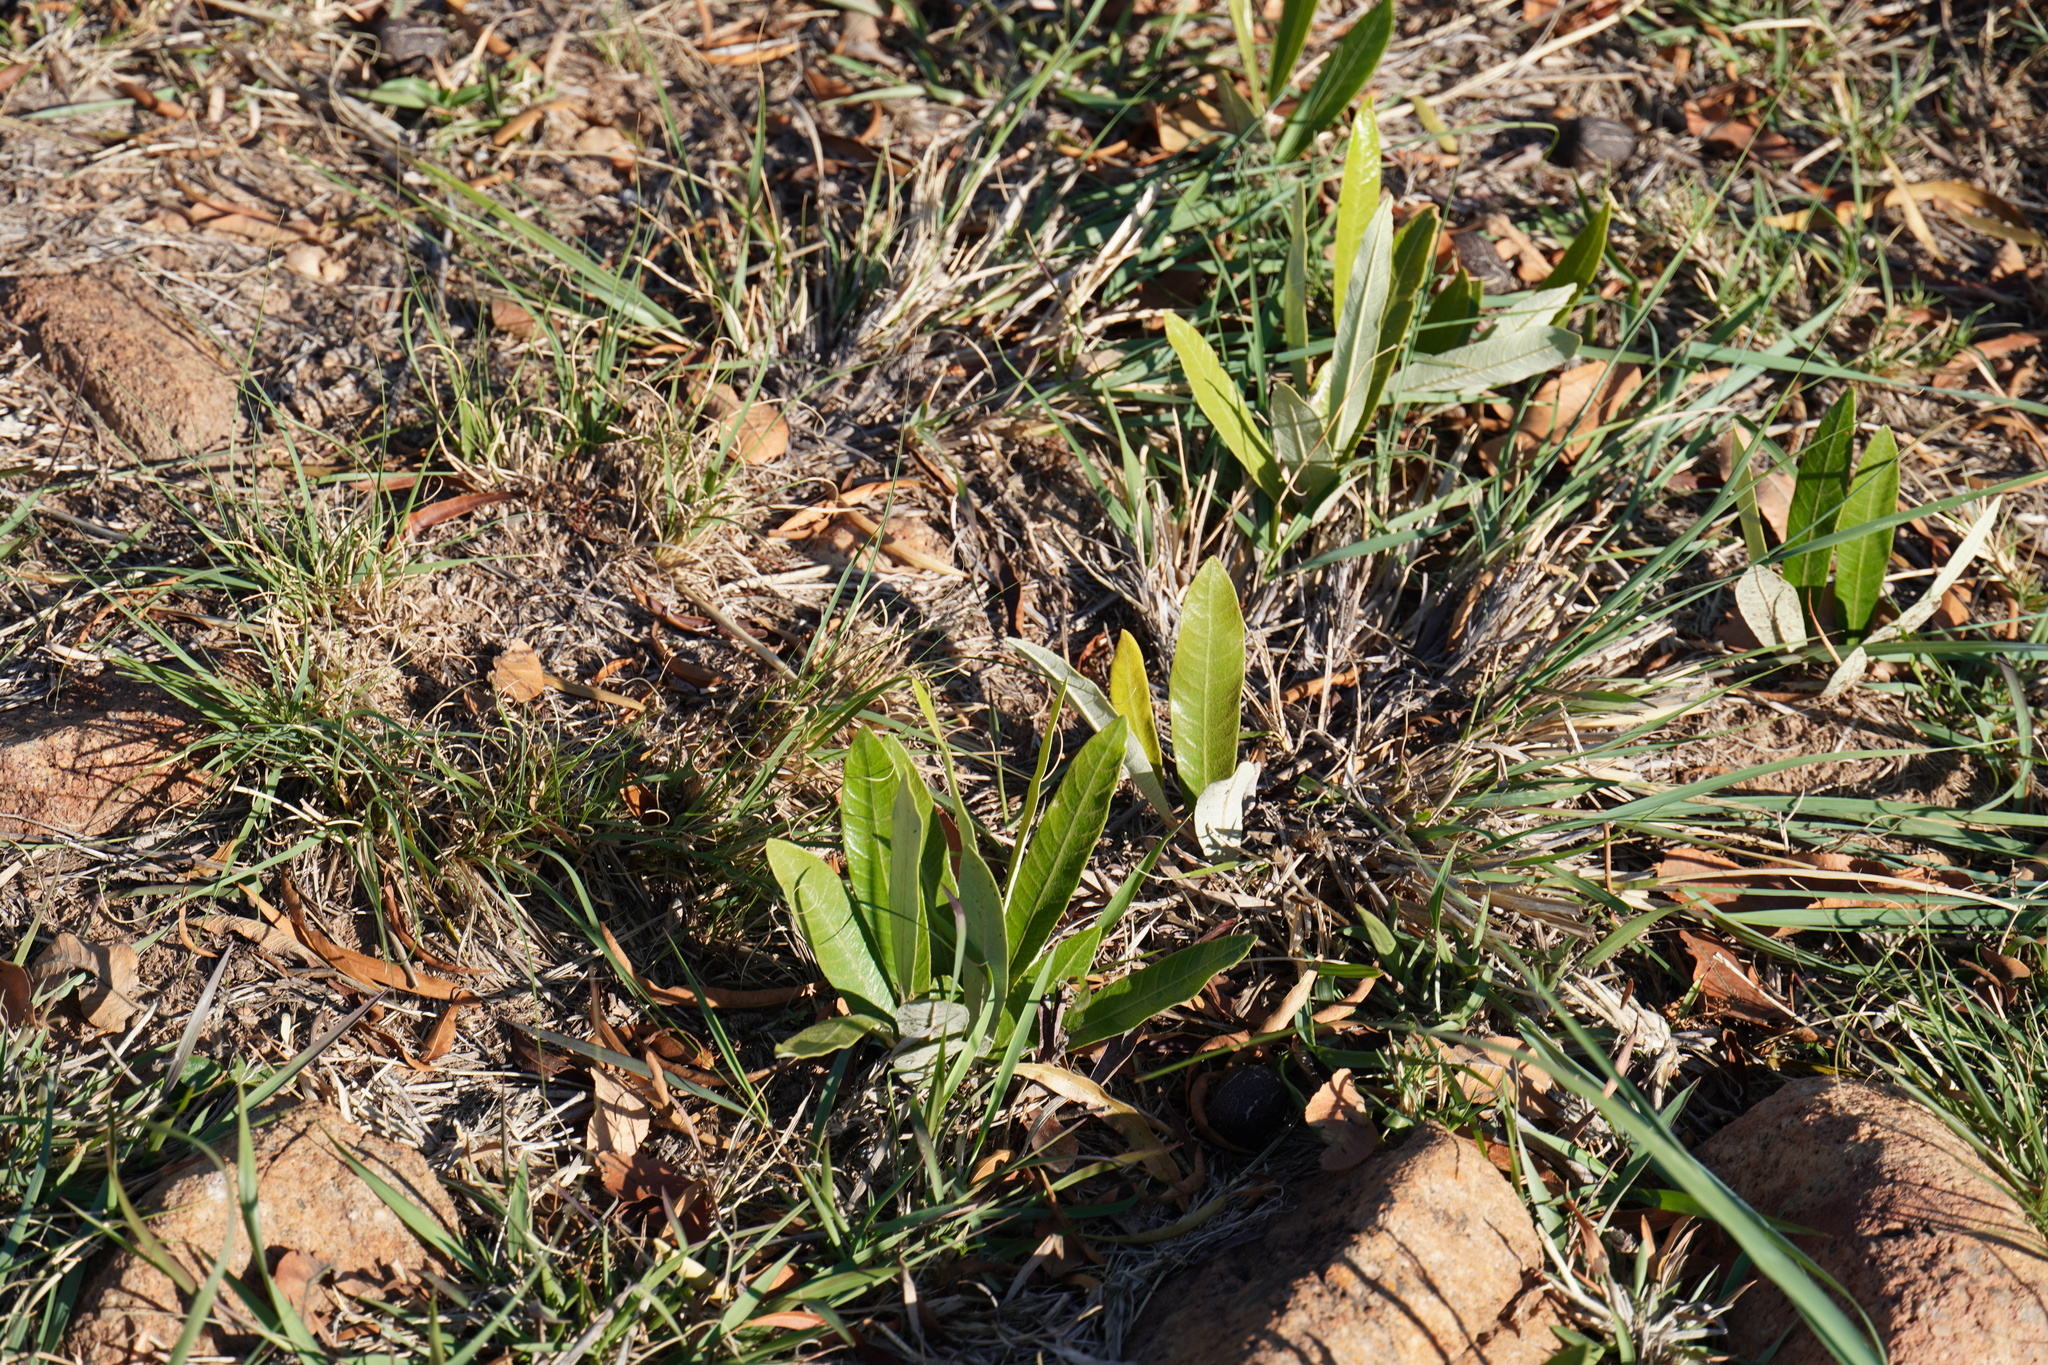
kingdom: Plantae
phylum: Tracheophyta
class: Magnoliopsida
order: Malpighiales
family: Chrysobalanaceae
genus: Parinari
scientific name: Parinari capensis
